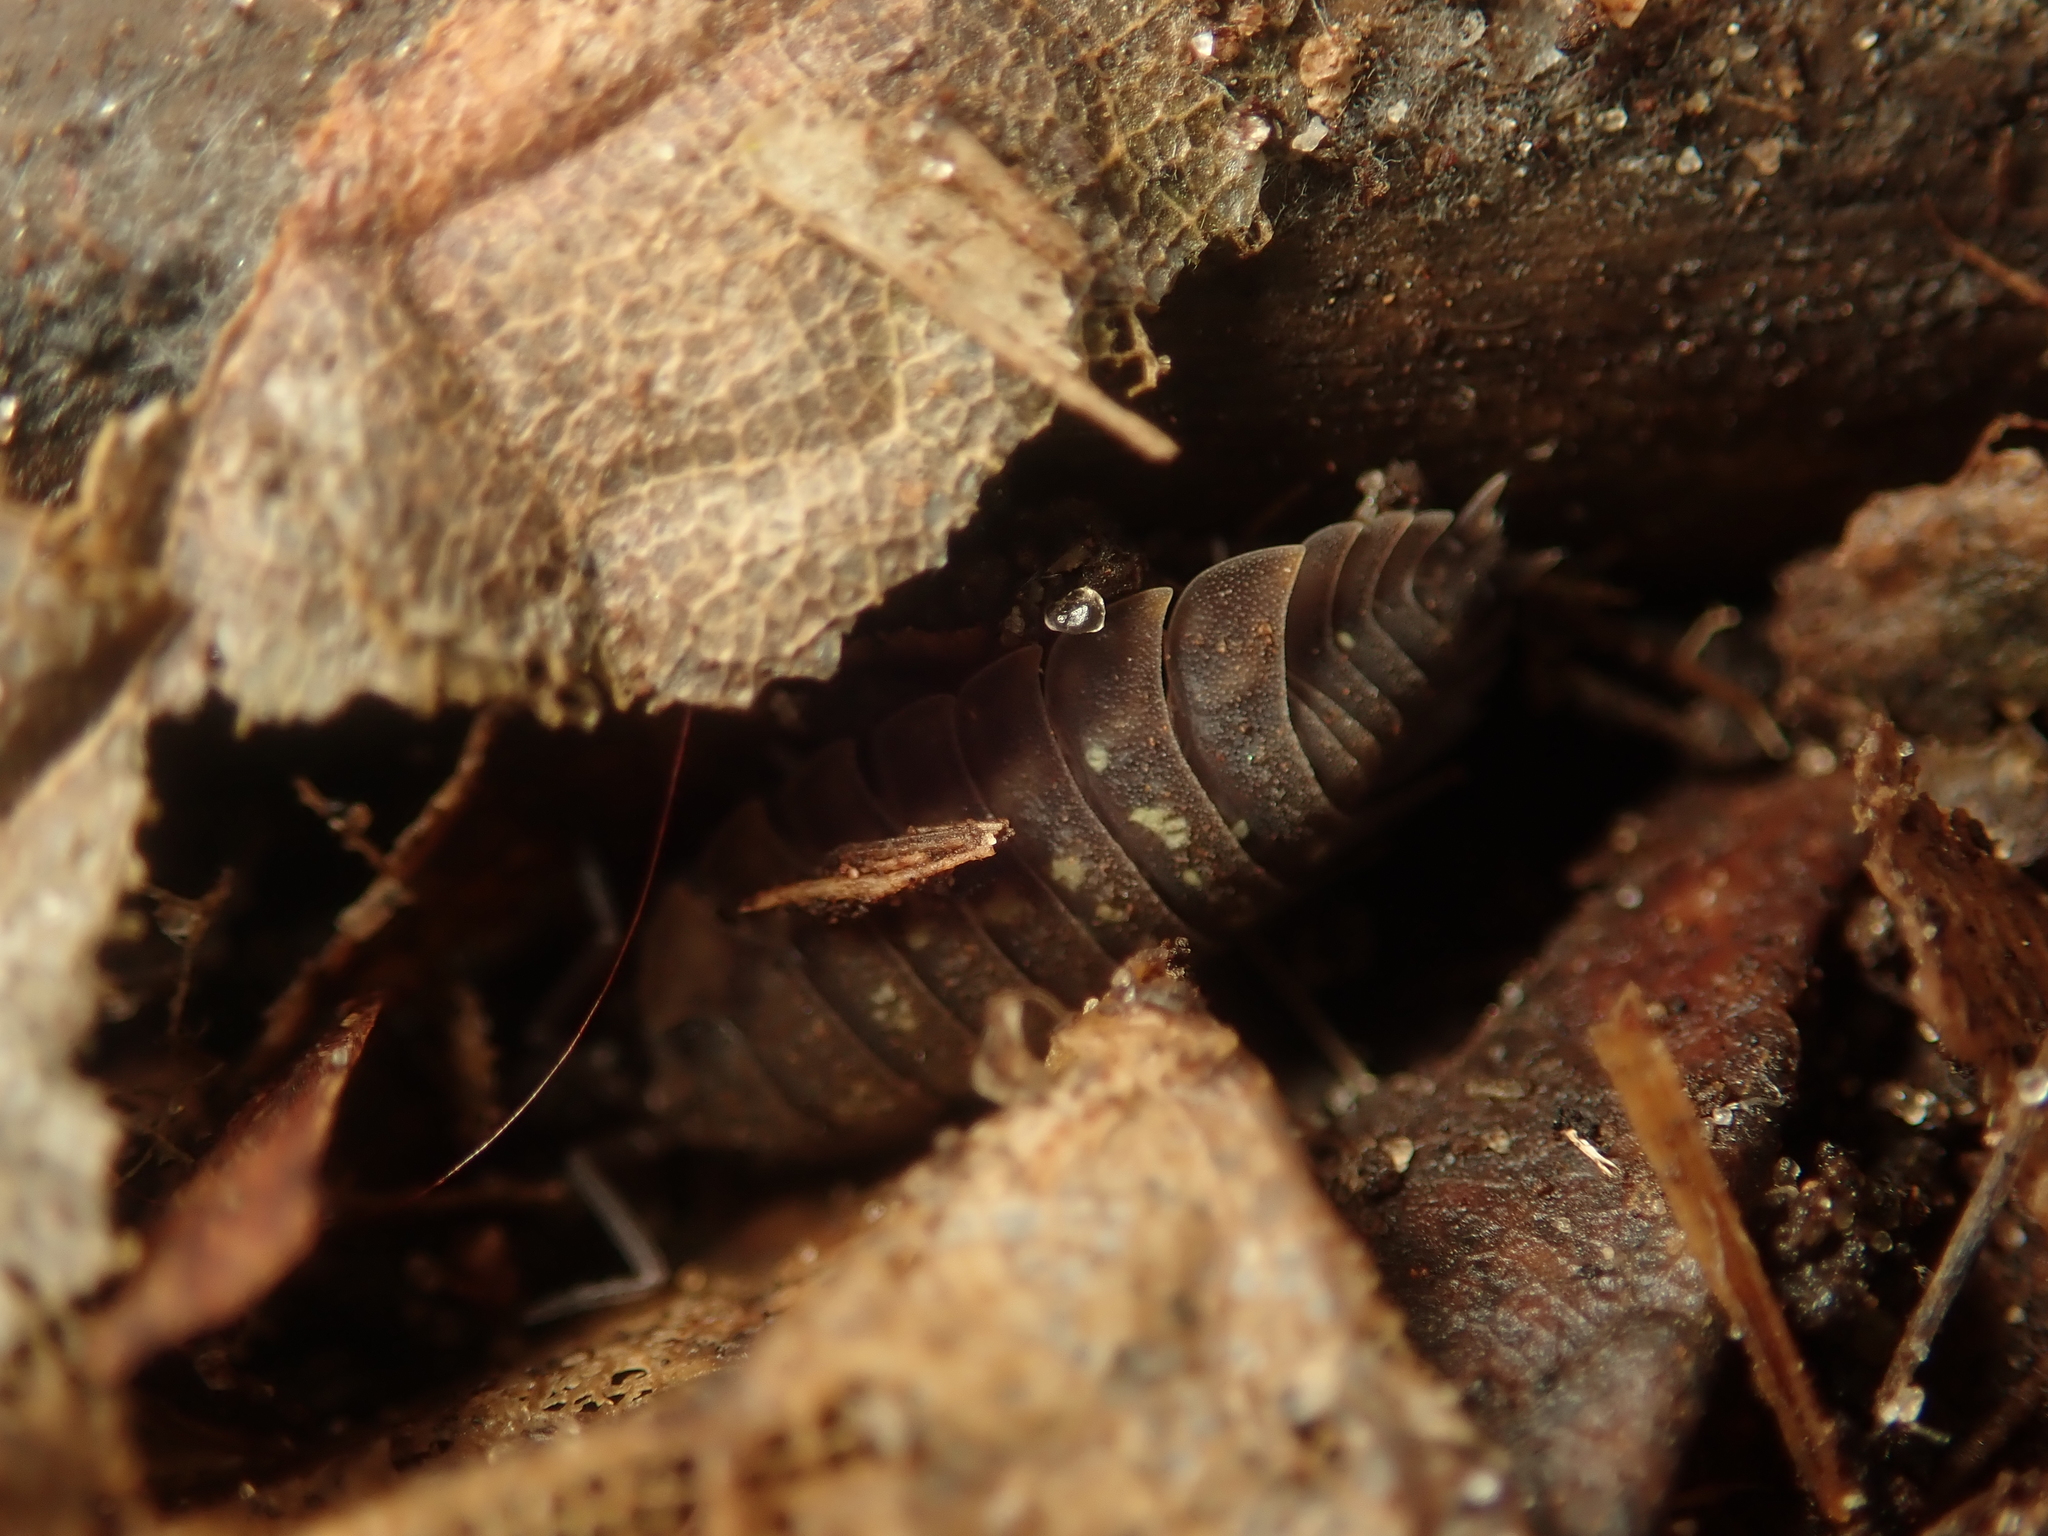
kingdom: Animalia
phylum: Arthropoda
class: Malacostraca
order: Isopoda
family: Oniscidae
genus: Oniscus
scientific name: Oniscus asellus
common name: Common shiny woodlouse
